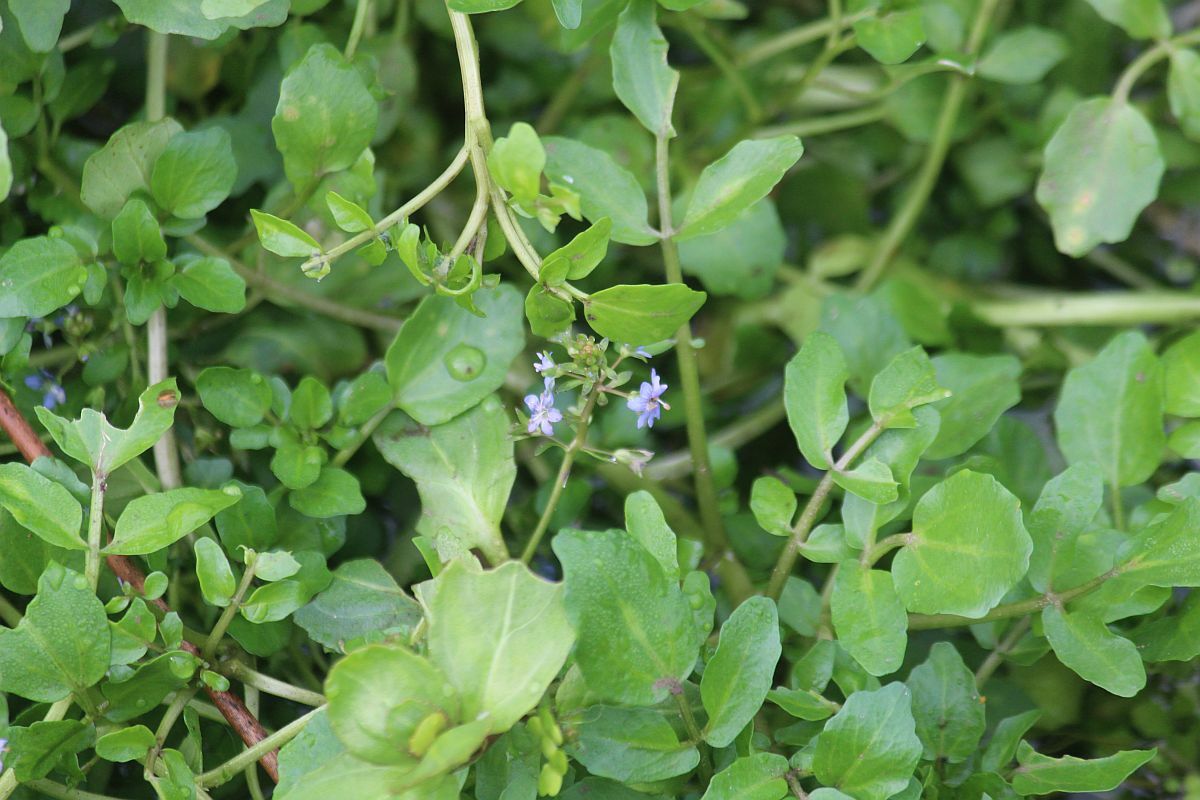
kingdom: Plantae
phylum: Tracheophyta
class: Magnoliopsida
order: Lamiales
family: Plantaginaceae
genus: Veronica
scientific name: Veronica beccabunga
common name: Brooklime
